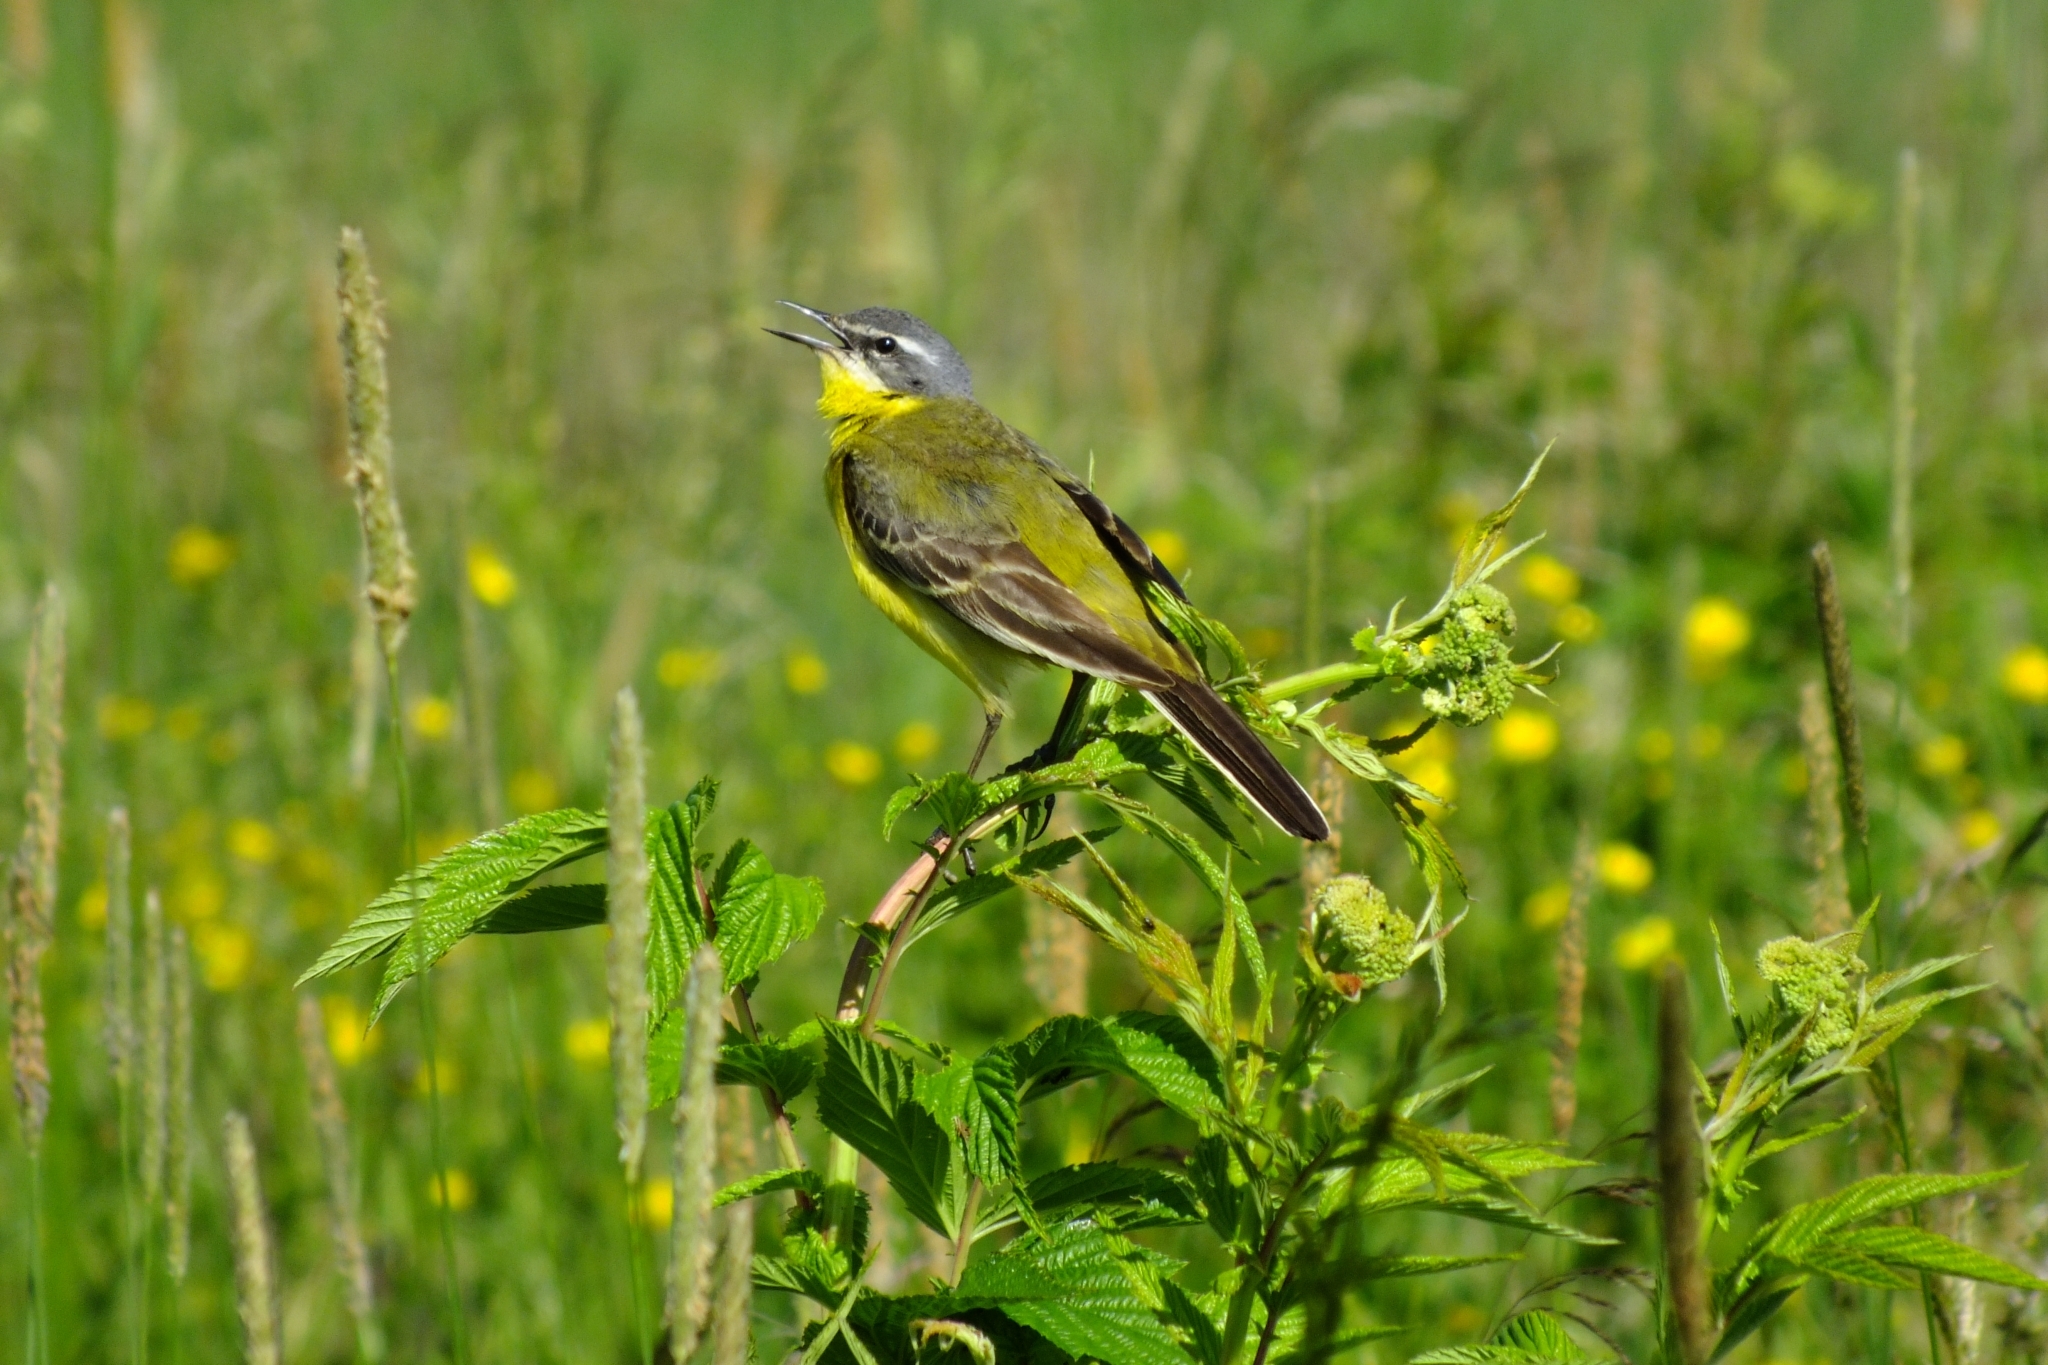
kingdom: Animalia
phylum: Chordata
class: Aves
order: Passeriformes
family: Motacillidae
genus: Motacilla
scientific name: Motacilla flava
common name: Western yellow wagtail
